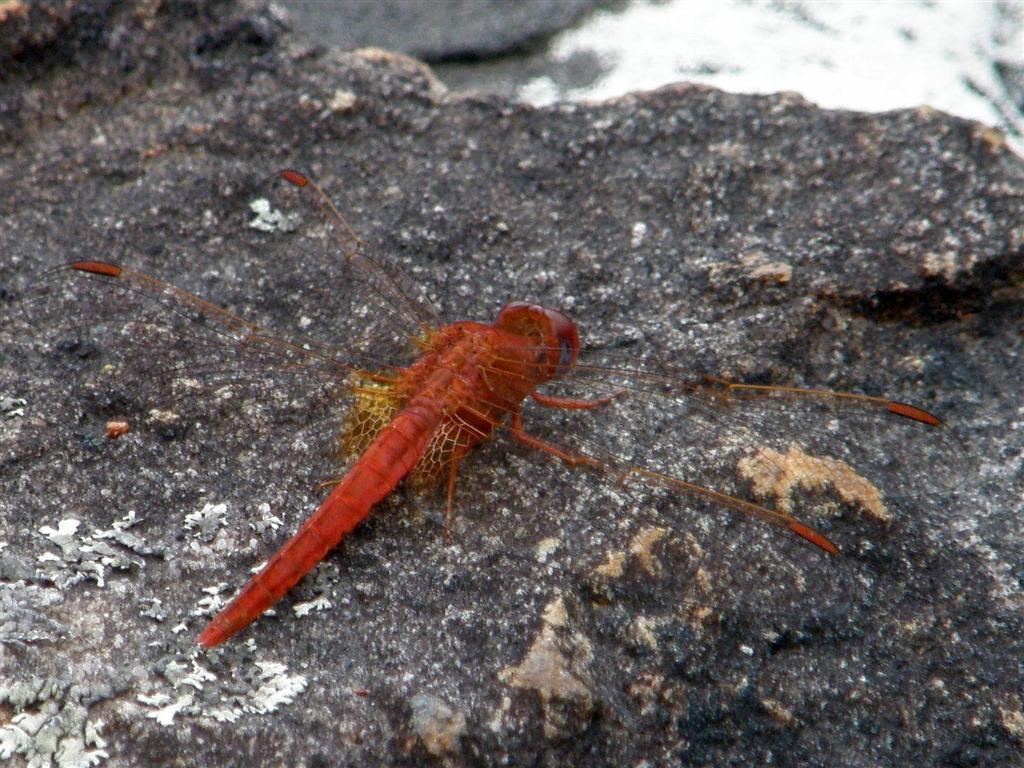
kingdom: Animalia
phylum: Arthropoda
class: Insecta
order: Odonata
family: Libellulidae
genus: Crocothemis
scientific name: Crocothemis sanguinolenta
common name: Little scarlet
